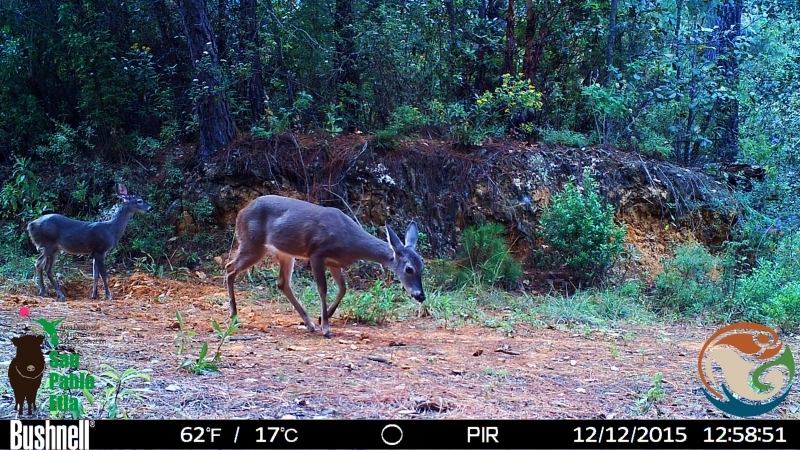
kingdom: Animalia
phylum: Chordata
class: Mammalia
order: Artiodactyla
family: Cervidae
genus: Odocoileus
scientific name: Odocoileus virginianus
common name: White-tailed deer
